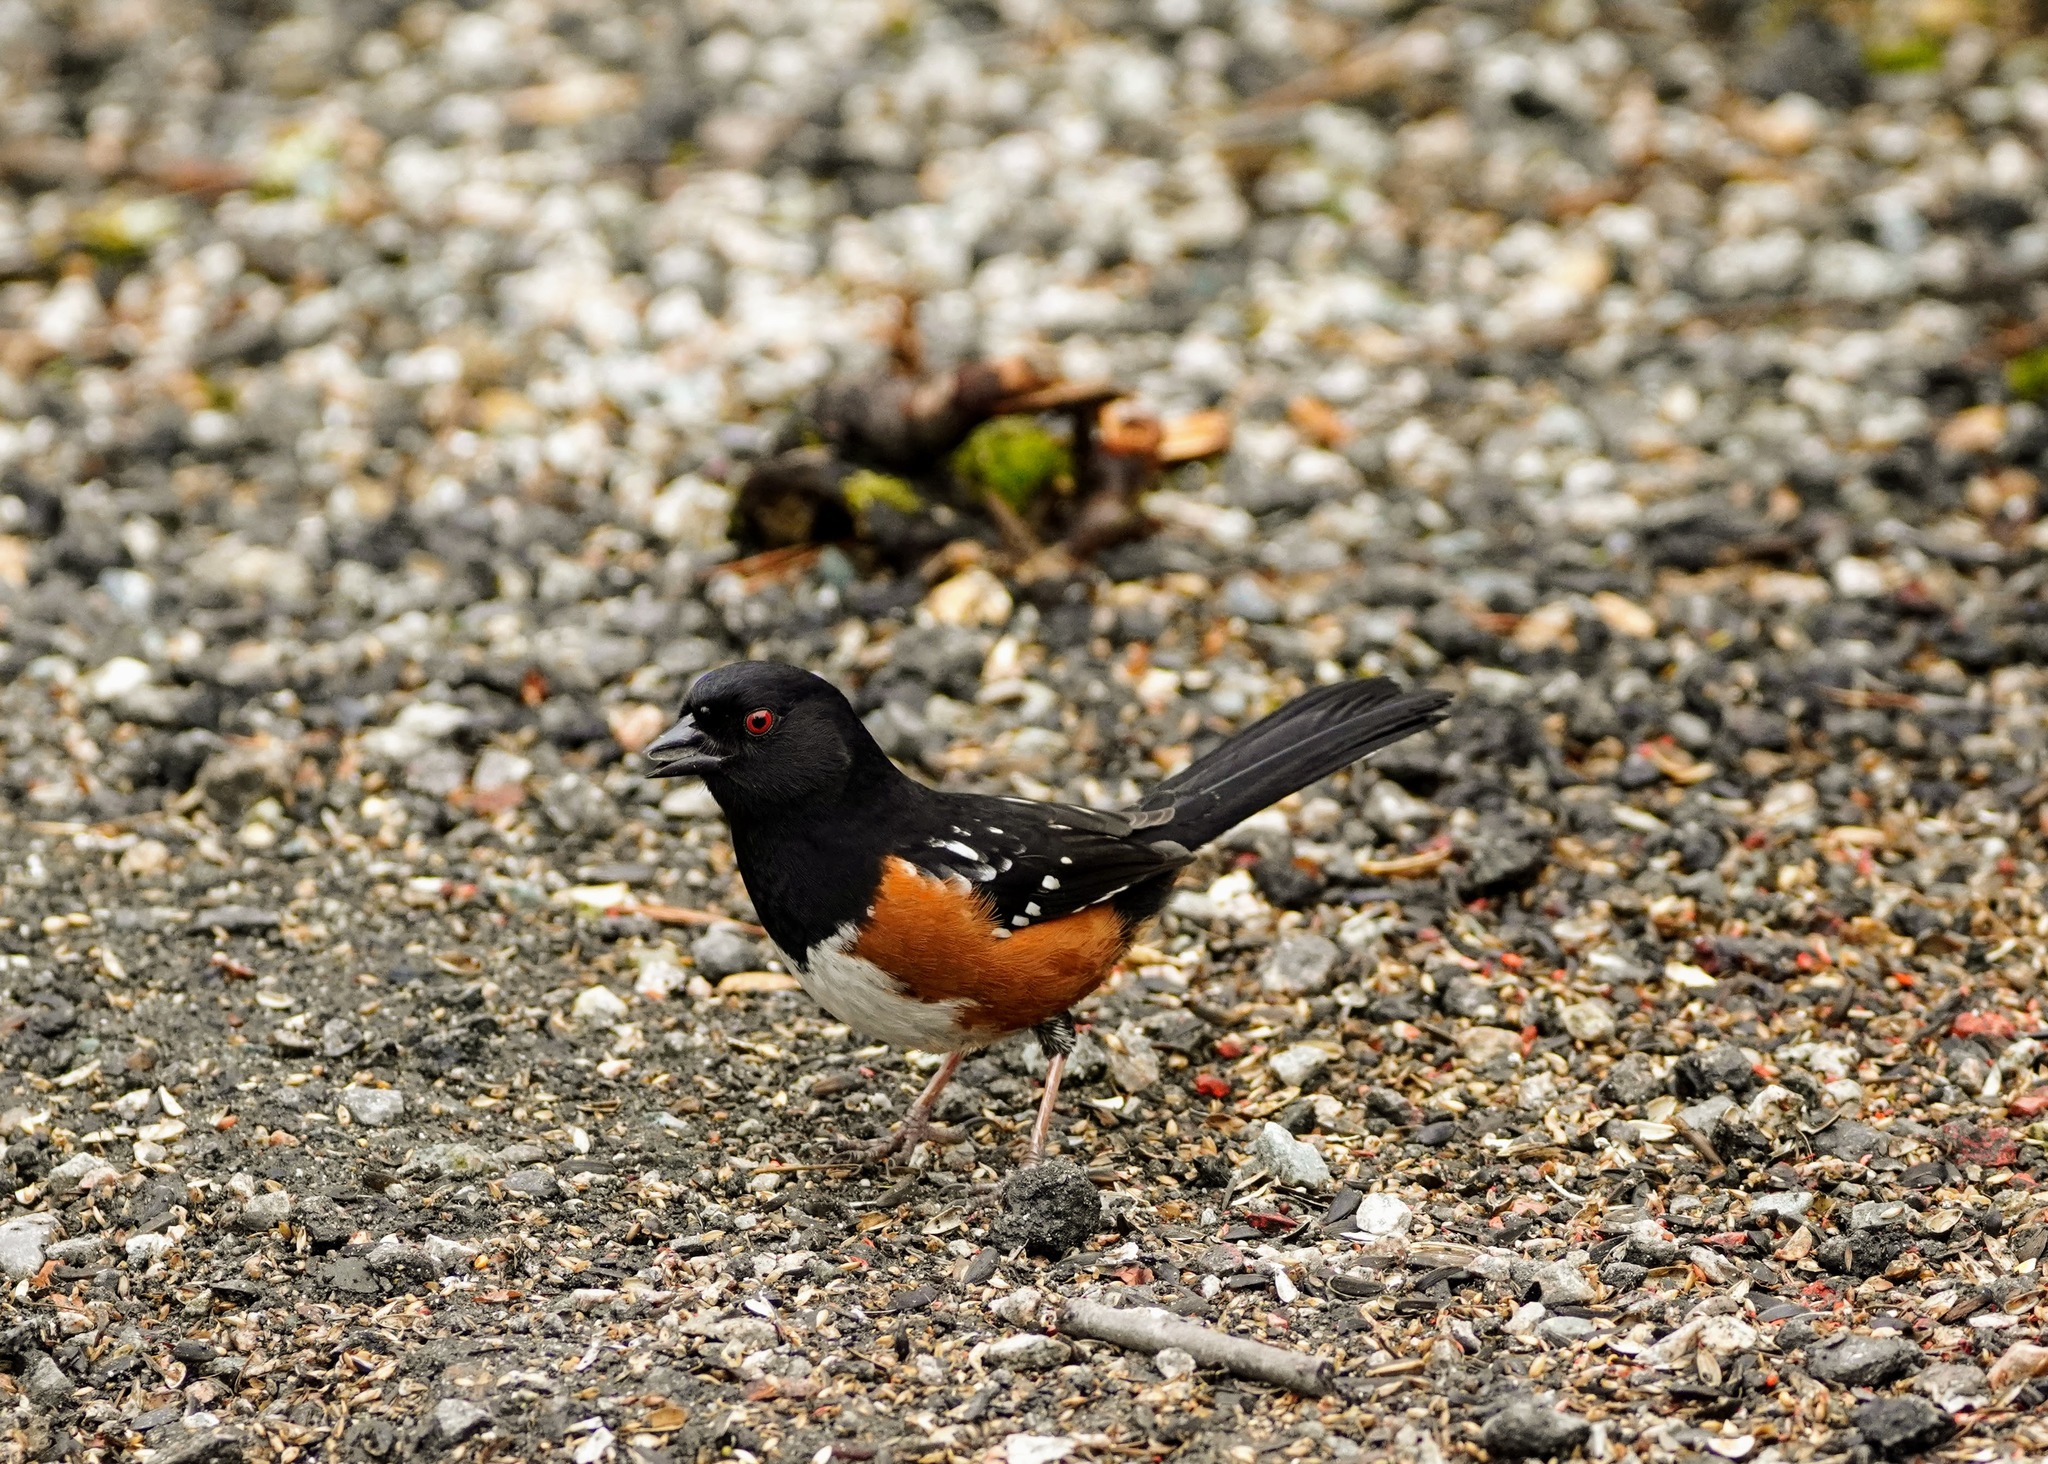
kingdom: Animalia
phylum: Chordata
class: Aves
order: Passeriformes
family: Passerellidae
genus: Pipilo
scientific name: Pipilo maculatus
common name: Spotted towhee
